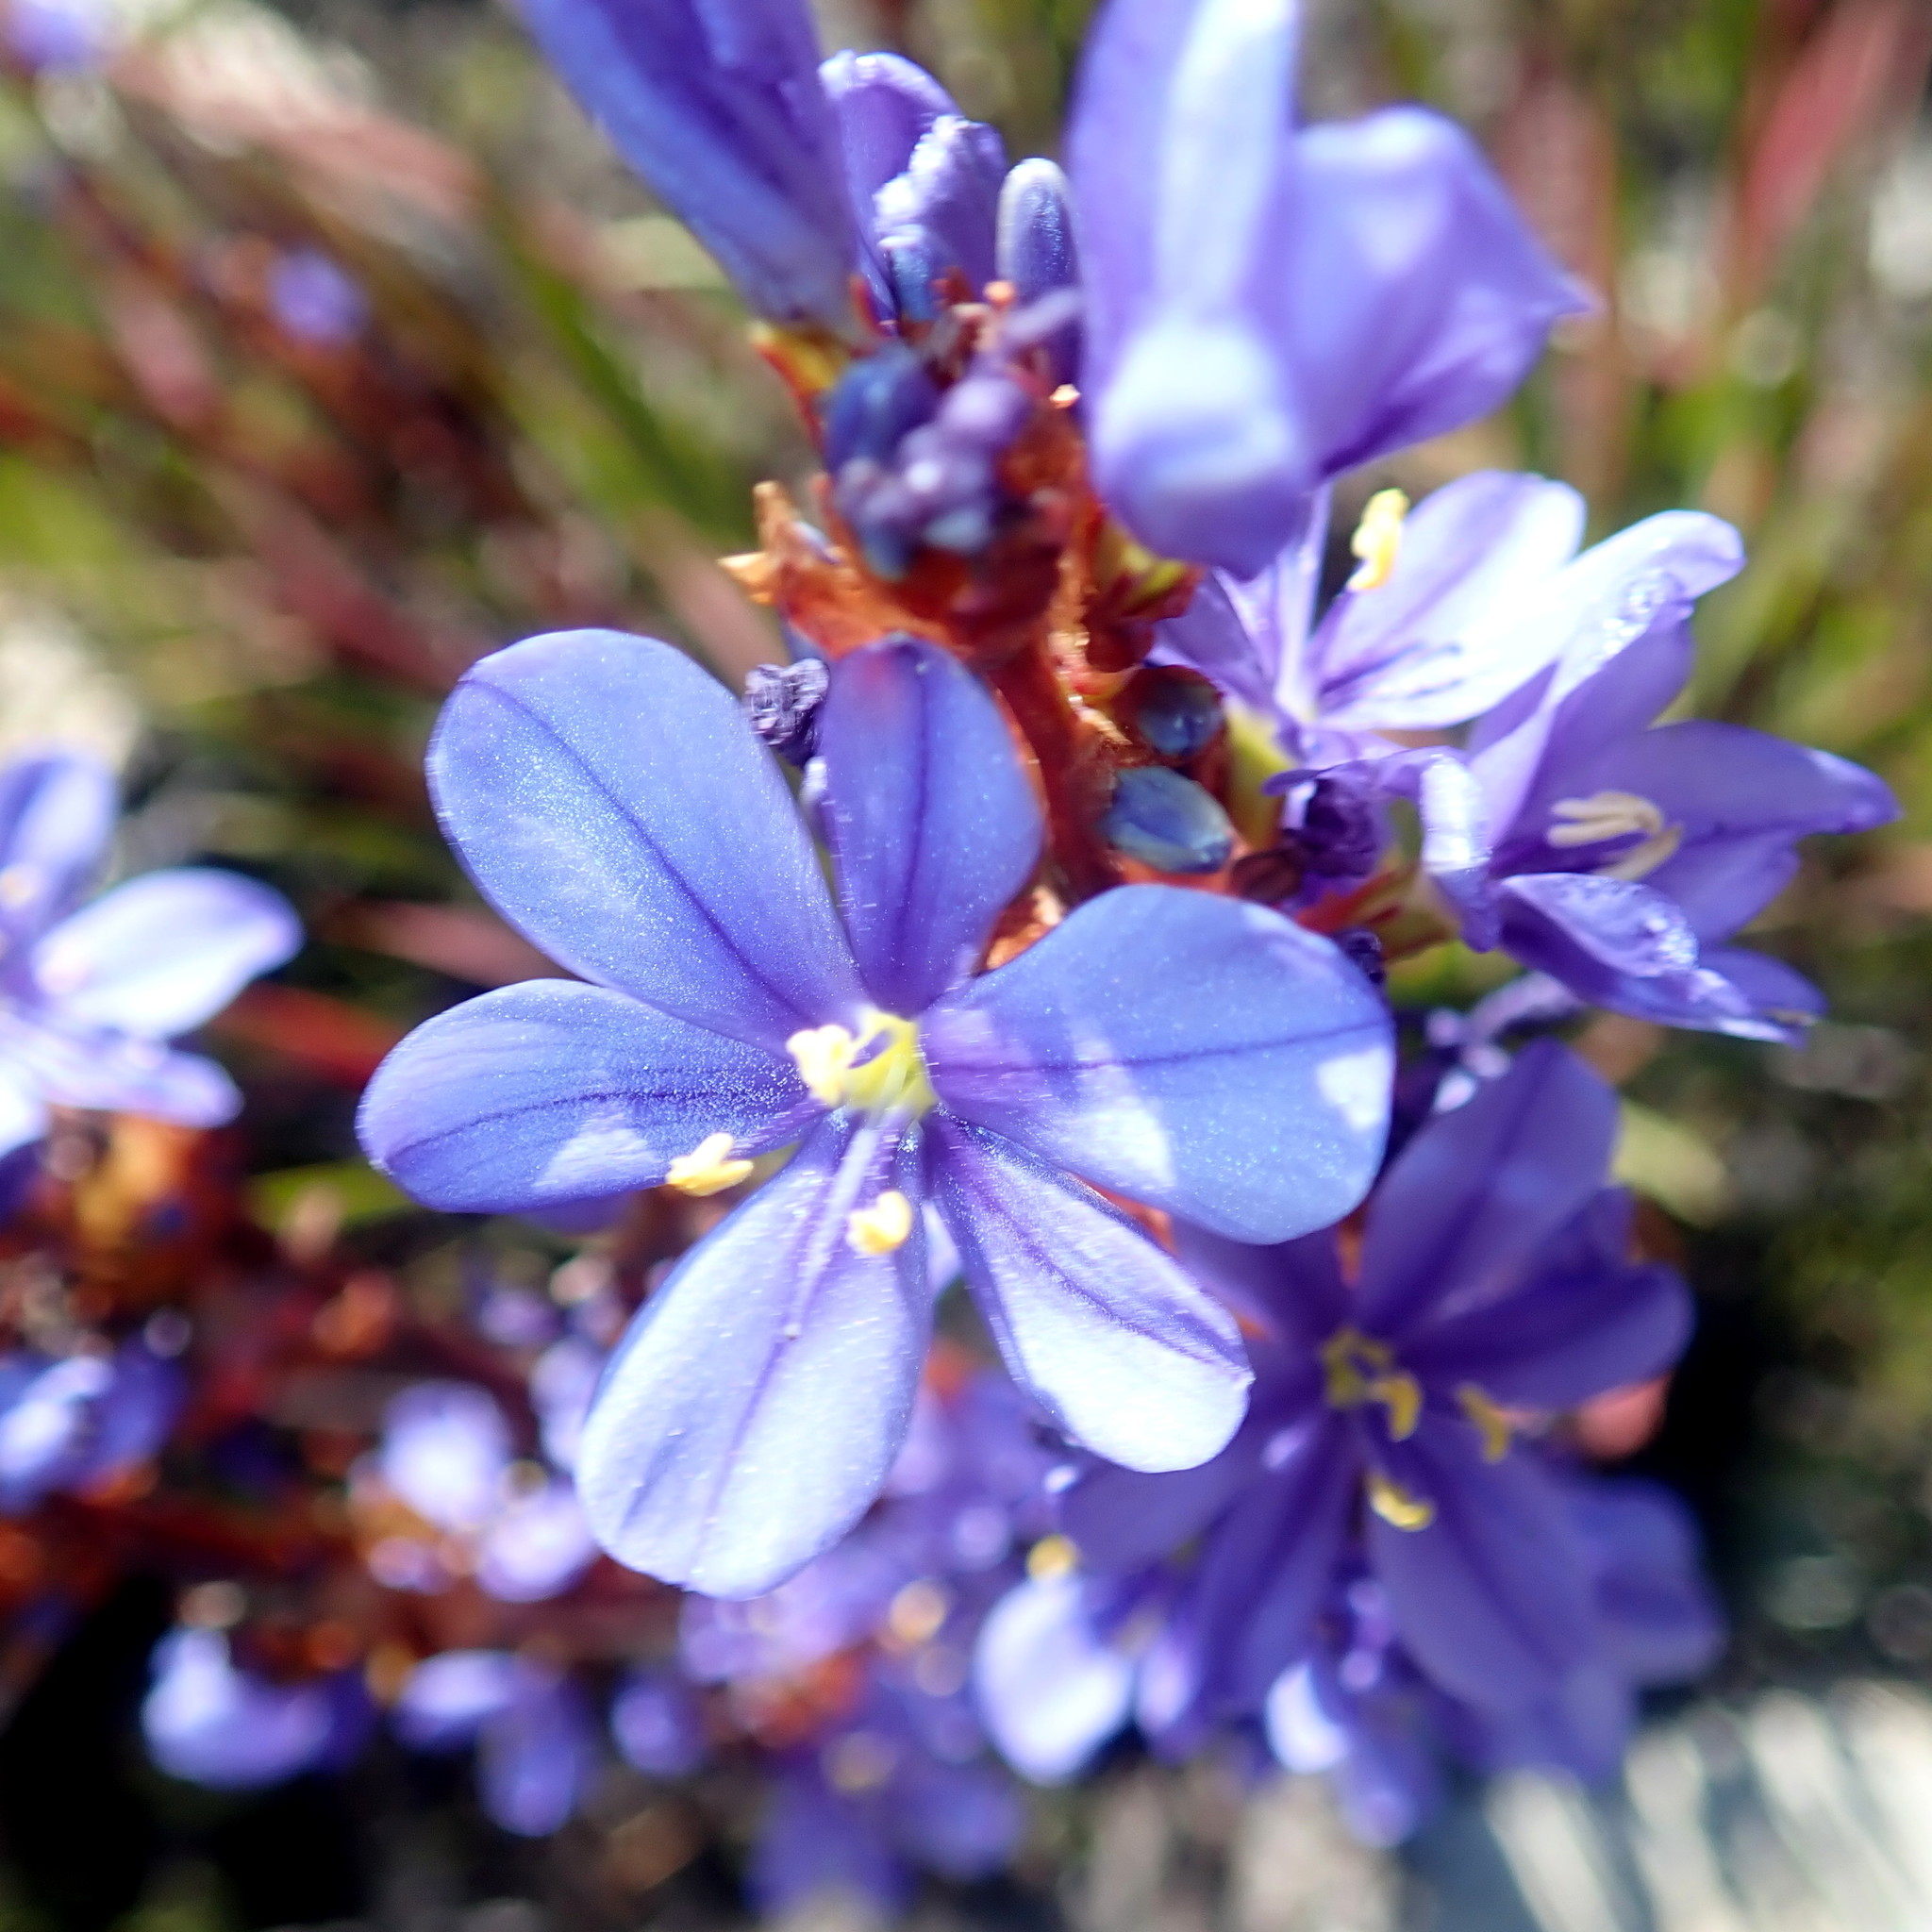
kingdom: Plantae
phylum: Tracheophyta
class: Liliopsida
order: Asparagales
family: Iridaceae
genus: Aristea
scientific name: Aristea bakeri
